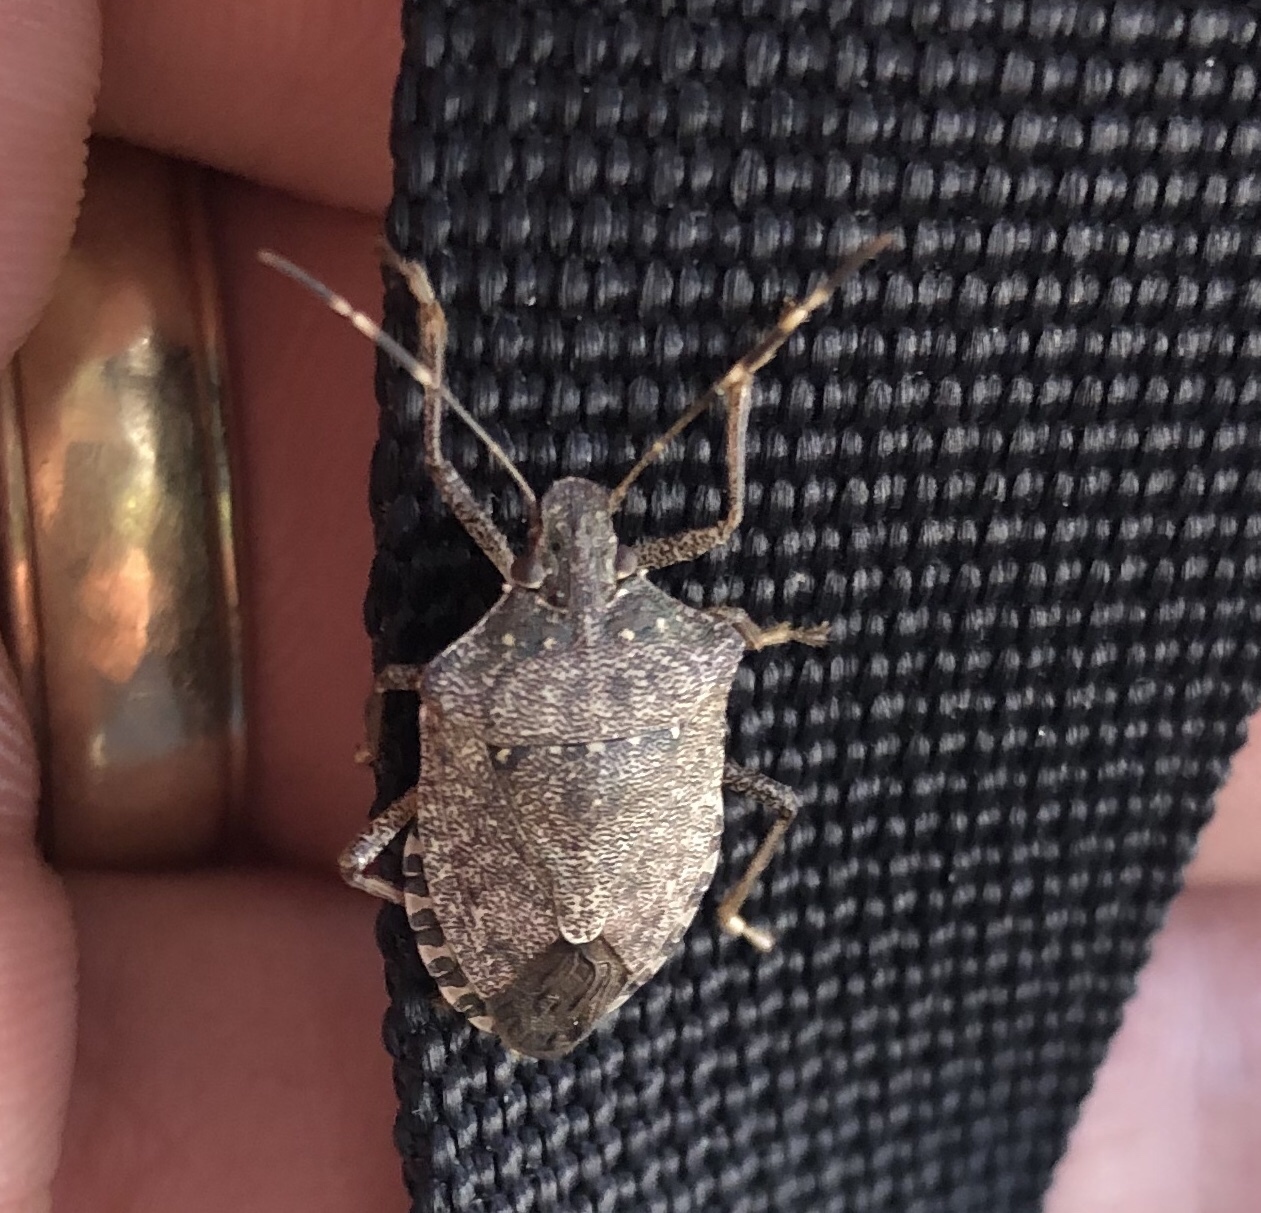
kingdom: Animalia
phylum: Arthropoda
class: Insecta
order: Hemiptera
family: Pentatomidae
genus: Halyomorpha
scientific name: Halyomorpha halys
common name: Brown marmorated stink bug
